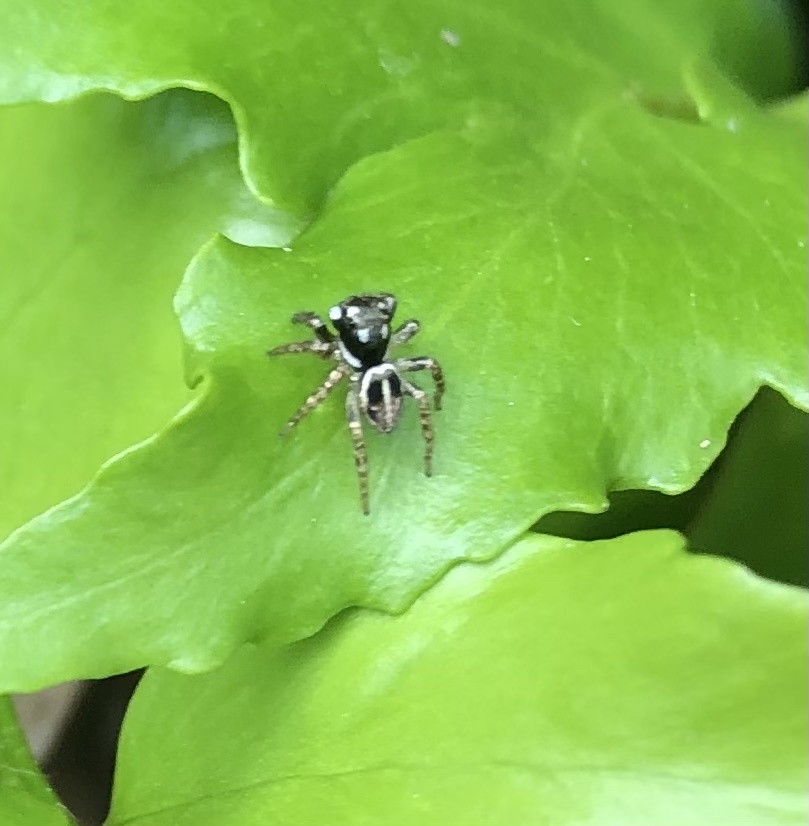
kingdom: Animalia
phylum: Arthropoda
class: Arachnida
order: Araneae
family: Salticidae
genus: Anasaitis
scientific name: Anasaitis canosa
